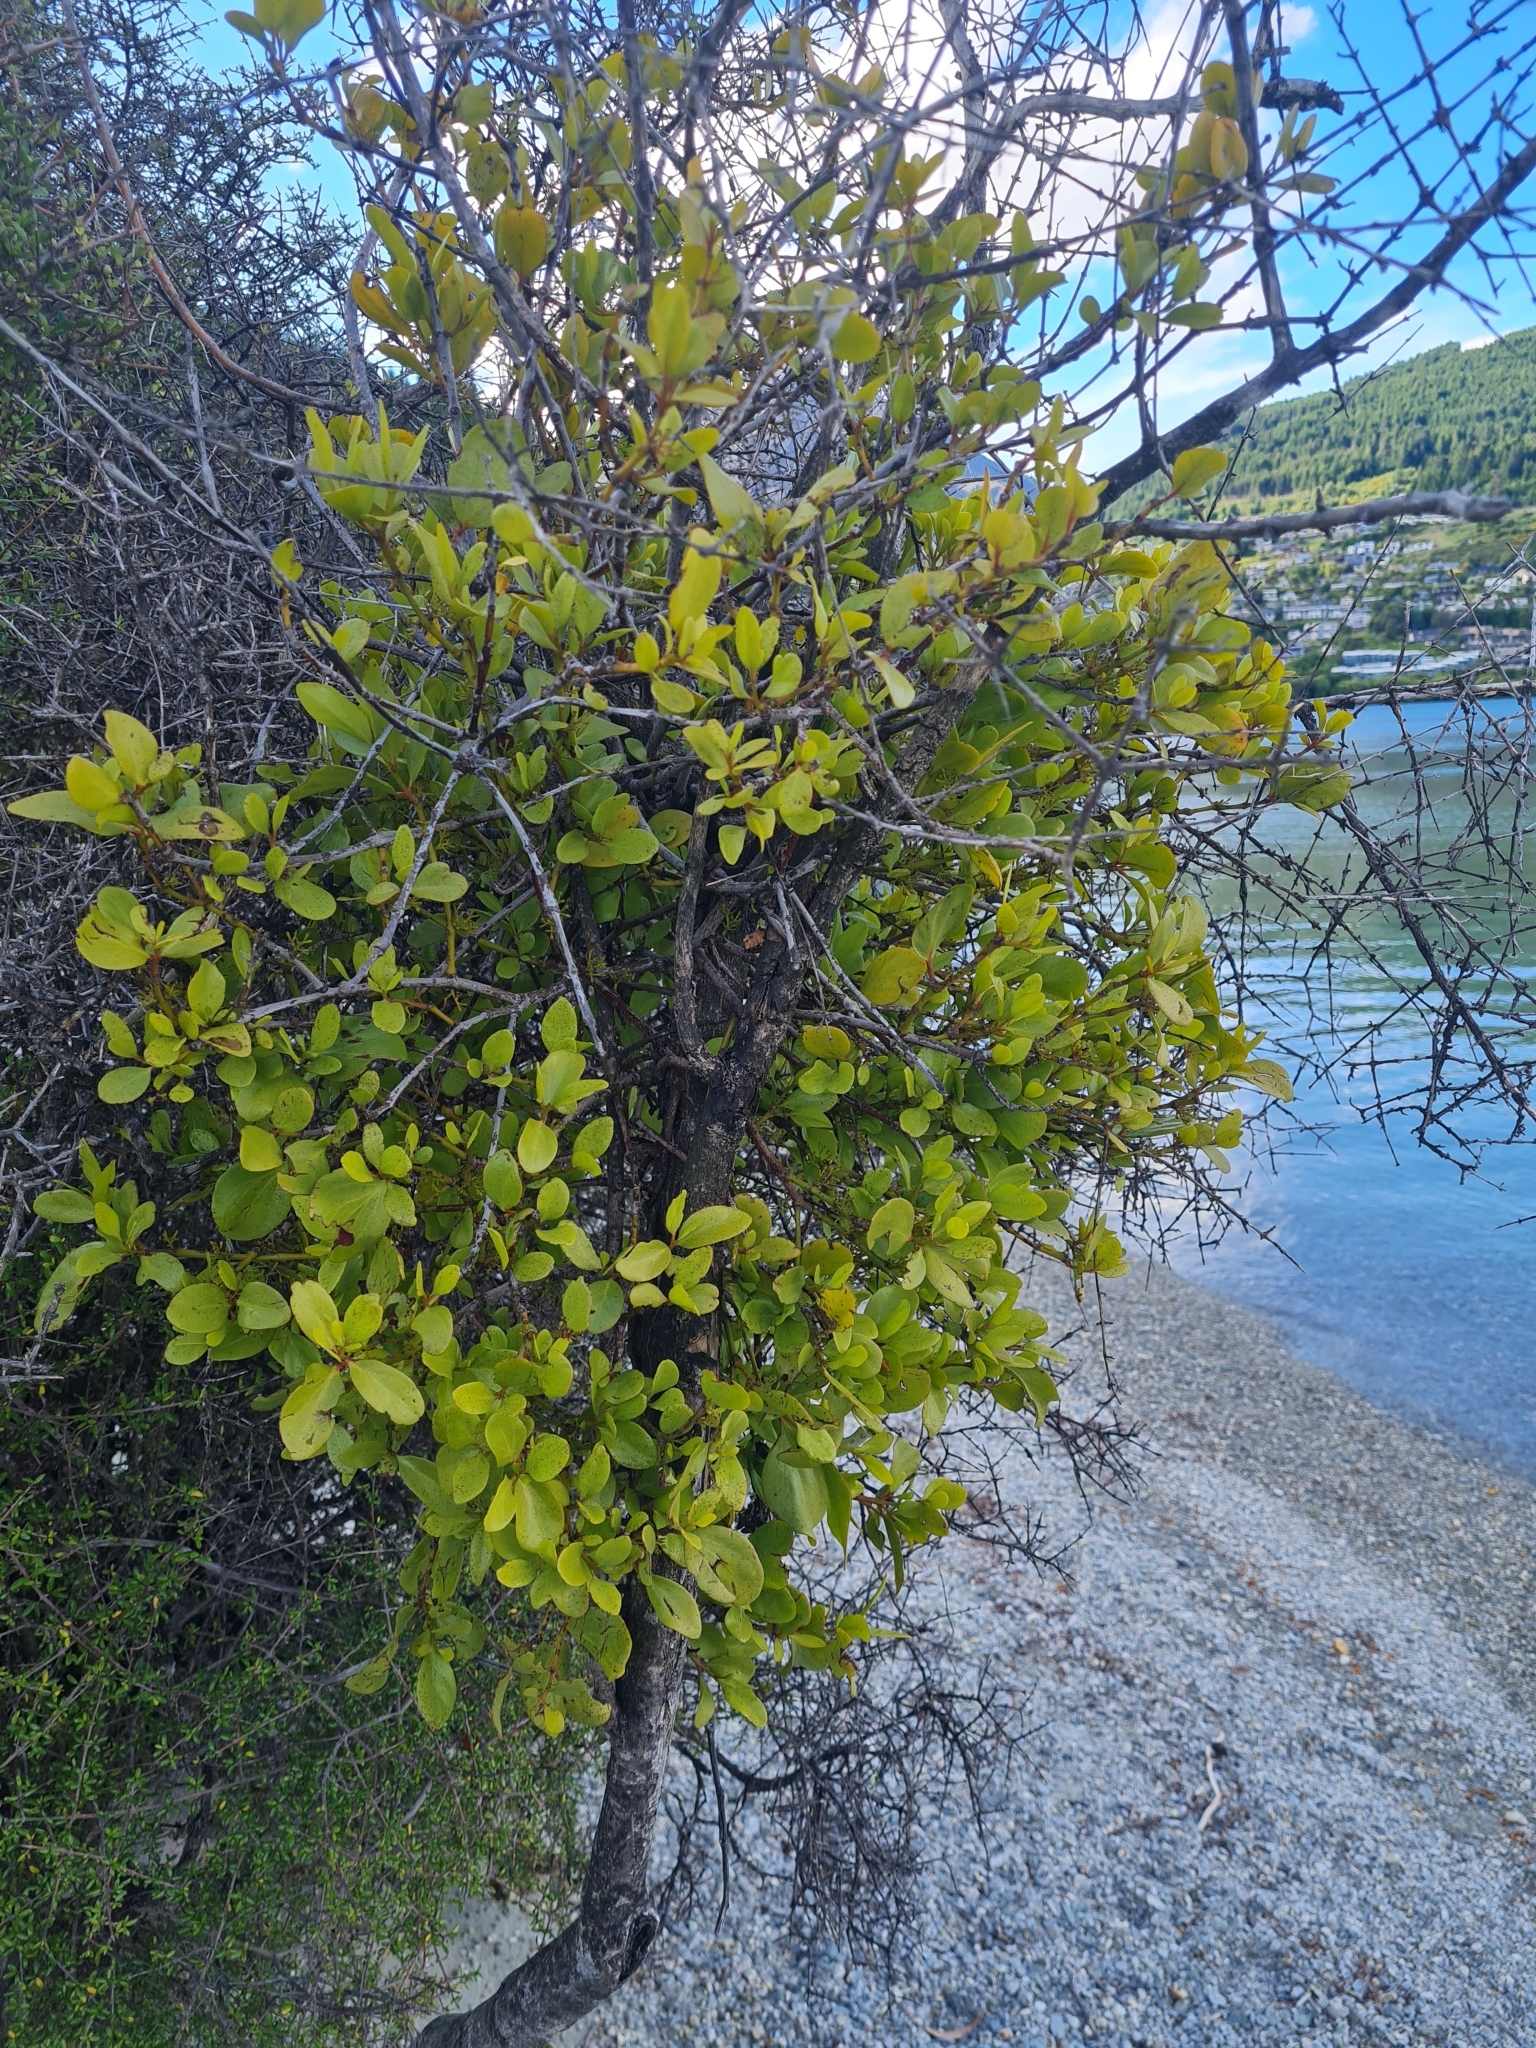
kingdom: Plantae
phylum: Tracheophyta
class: Magnoliopsida
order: Santalales
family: Loranthaceae
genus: Ileostylus
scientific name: Ileostylus micranthus
